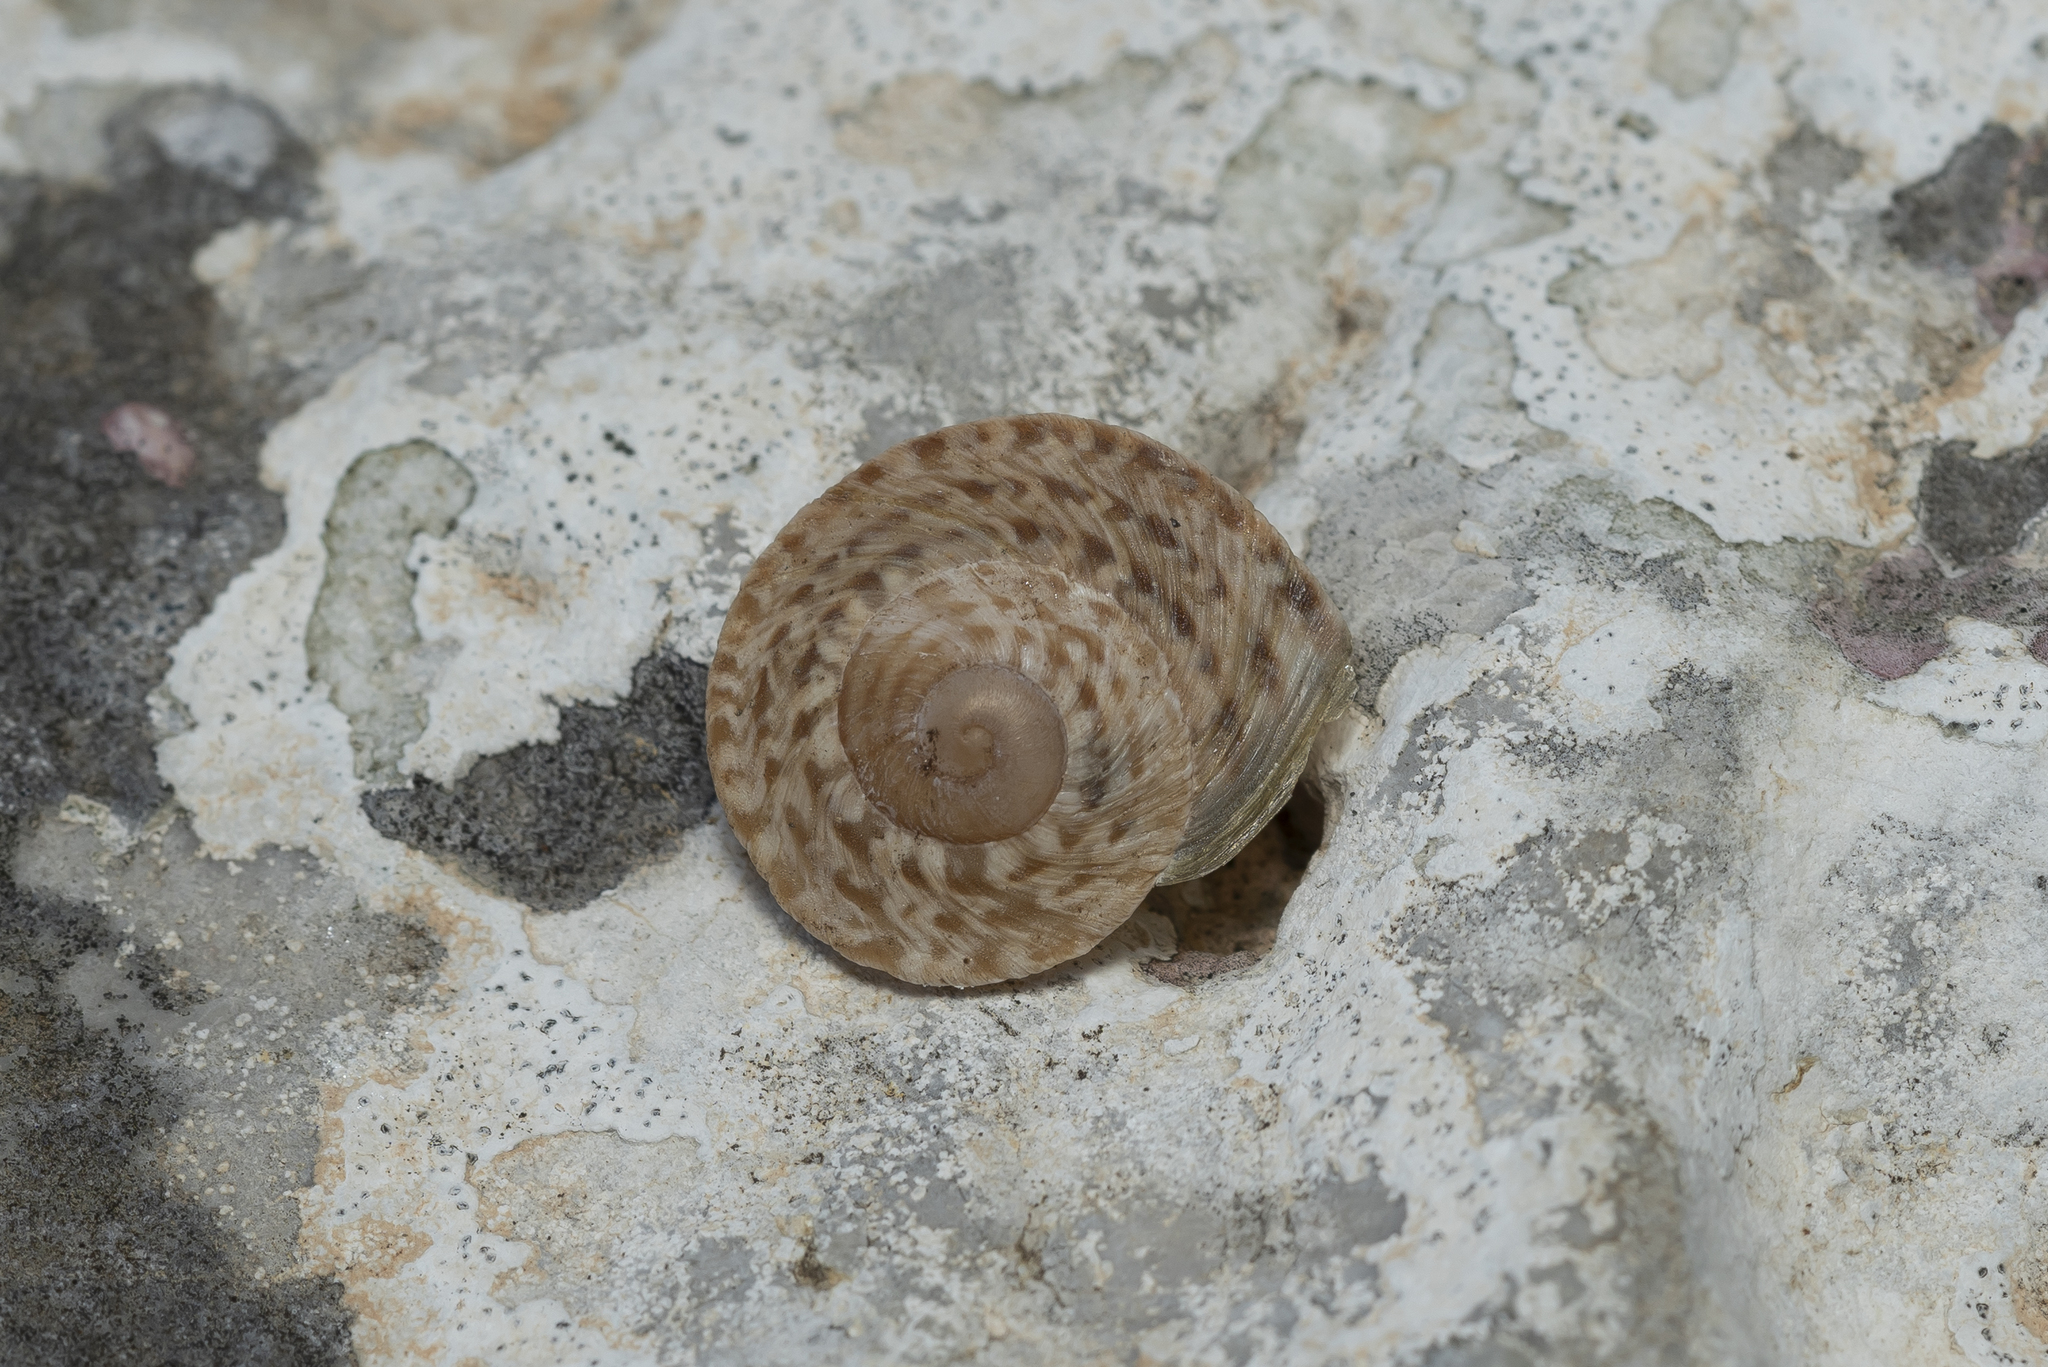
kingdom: Animalia
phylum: Mollusca
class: Gastropoda
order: Stylommatophora
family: Helicidae
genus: Levantina
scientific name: Levantina spiriplana
